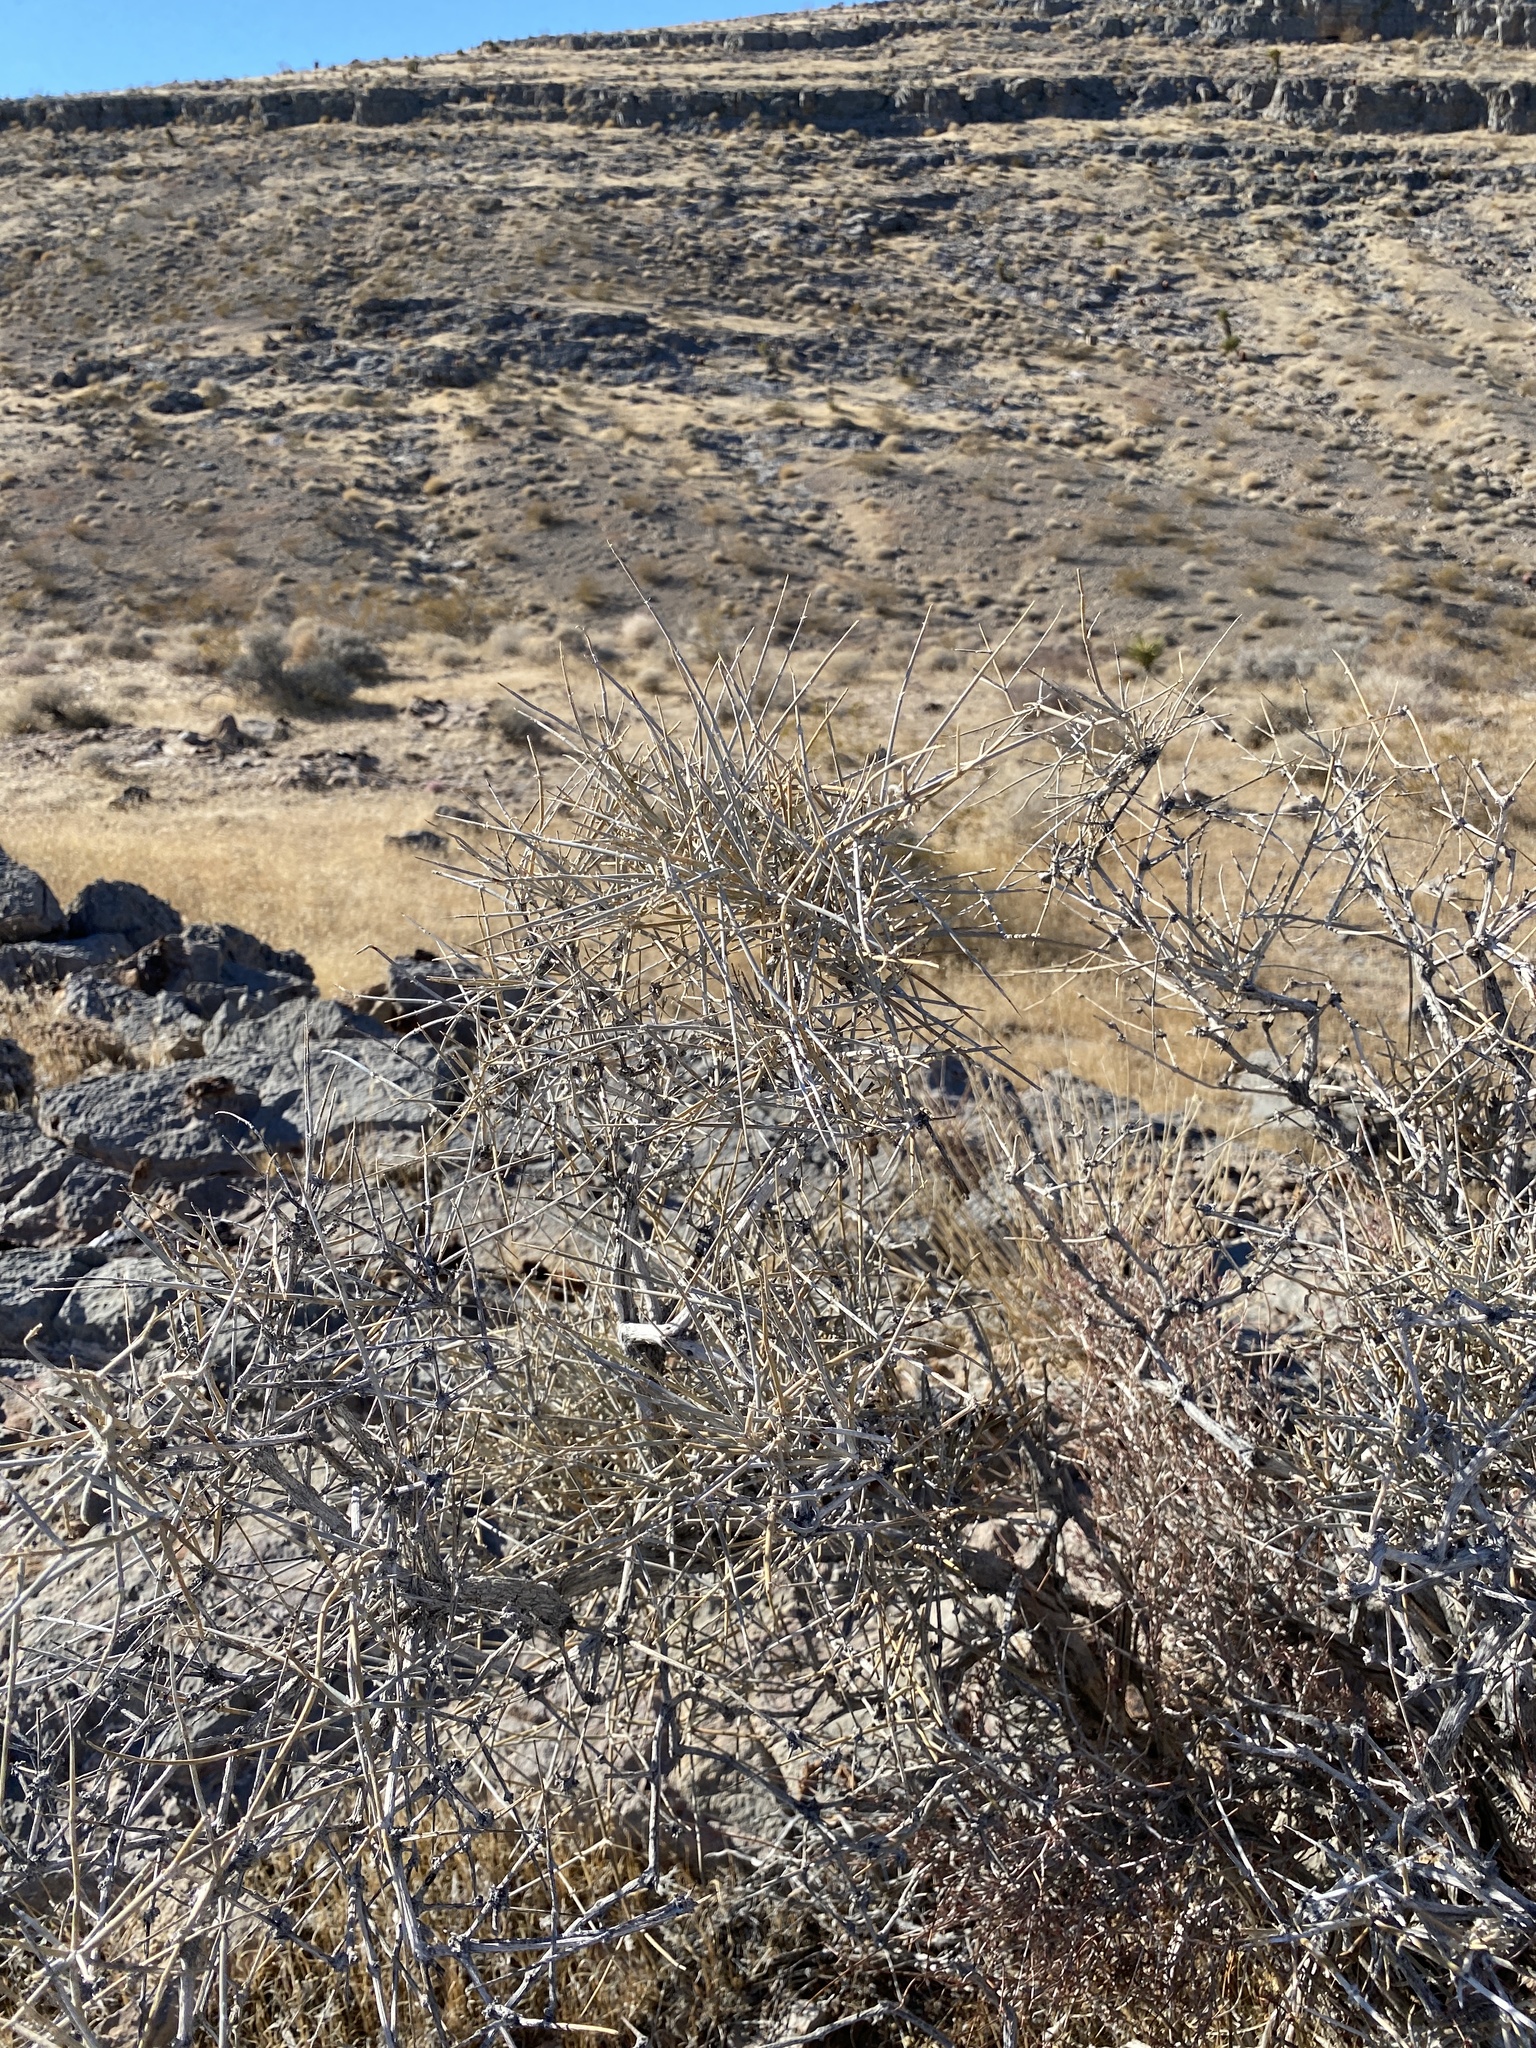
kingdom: Plantae
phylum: Tracheophyta
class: Gnetopsida
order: Ephedrales
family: Ephedraceae
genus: Ephedra
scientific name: Ephedra nevadensis
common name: Gray ephedra
